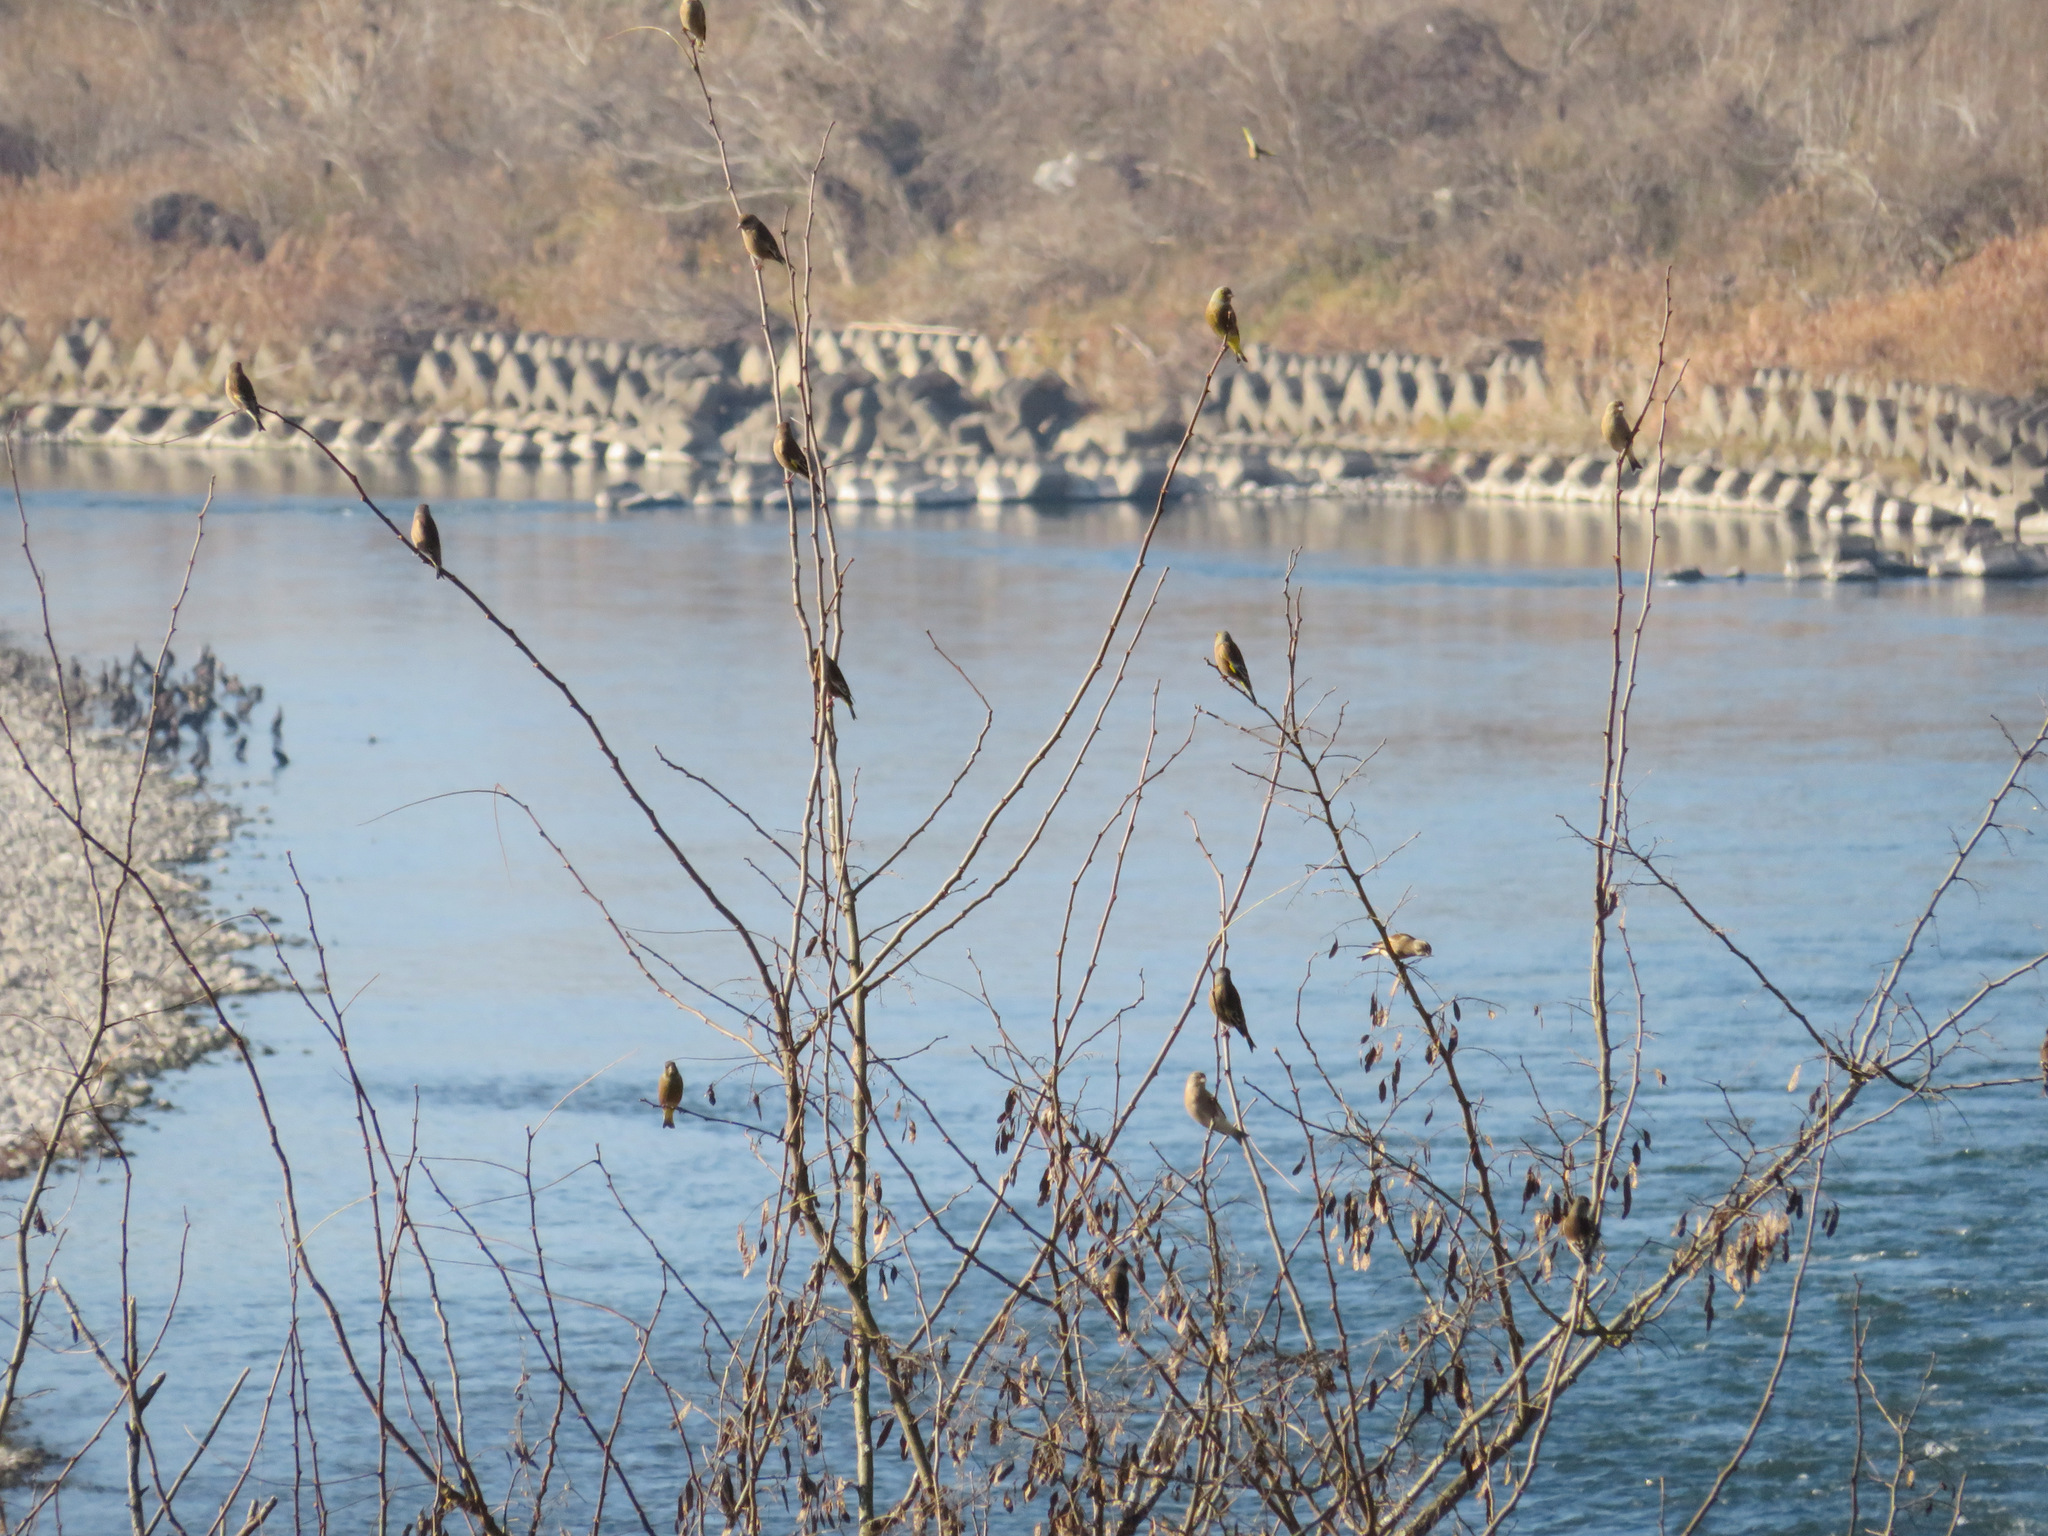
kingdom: Plantae
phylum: Tracheophyta
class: Liliopsida
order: Poales
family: Poaceae
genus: Chloris
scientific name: Chloris sinica
